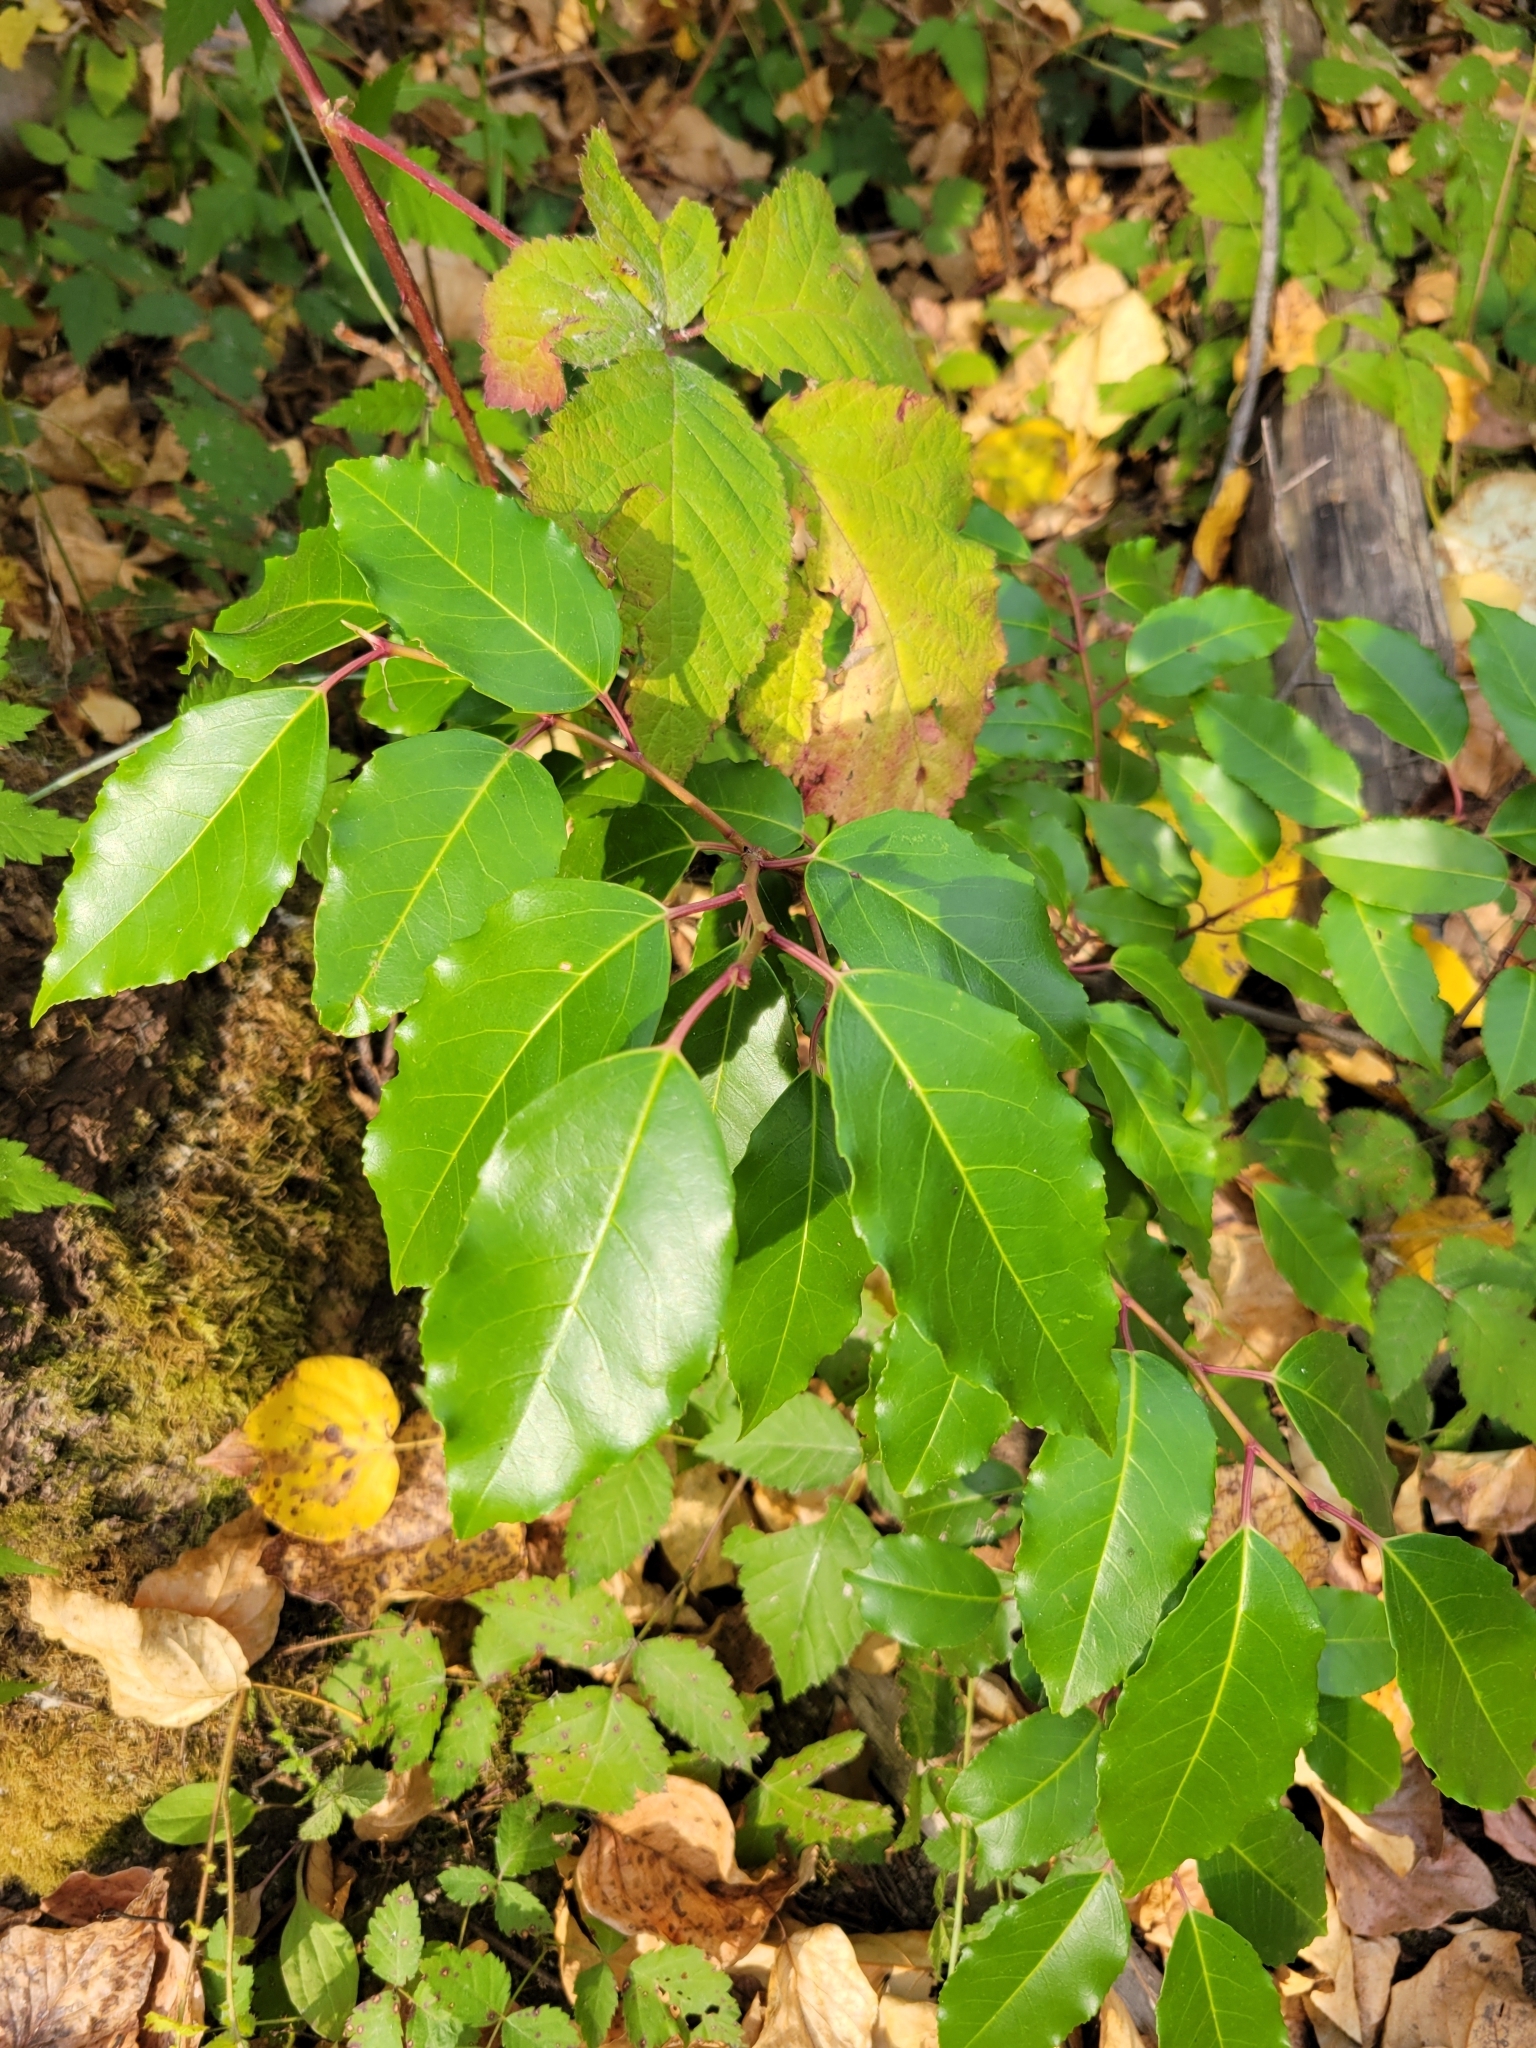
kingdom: Plantae
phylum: Tracheophyta
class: Magnoliopsida
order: Rosales
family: Rosaceae
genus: Prunus
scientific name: Prunus lusitanica
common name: Portugal laurel
